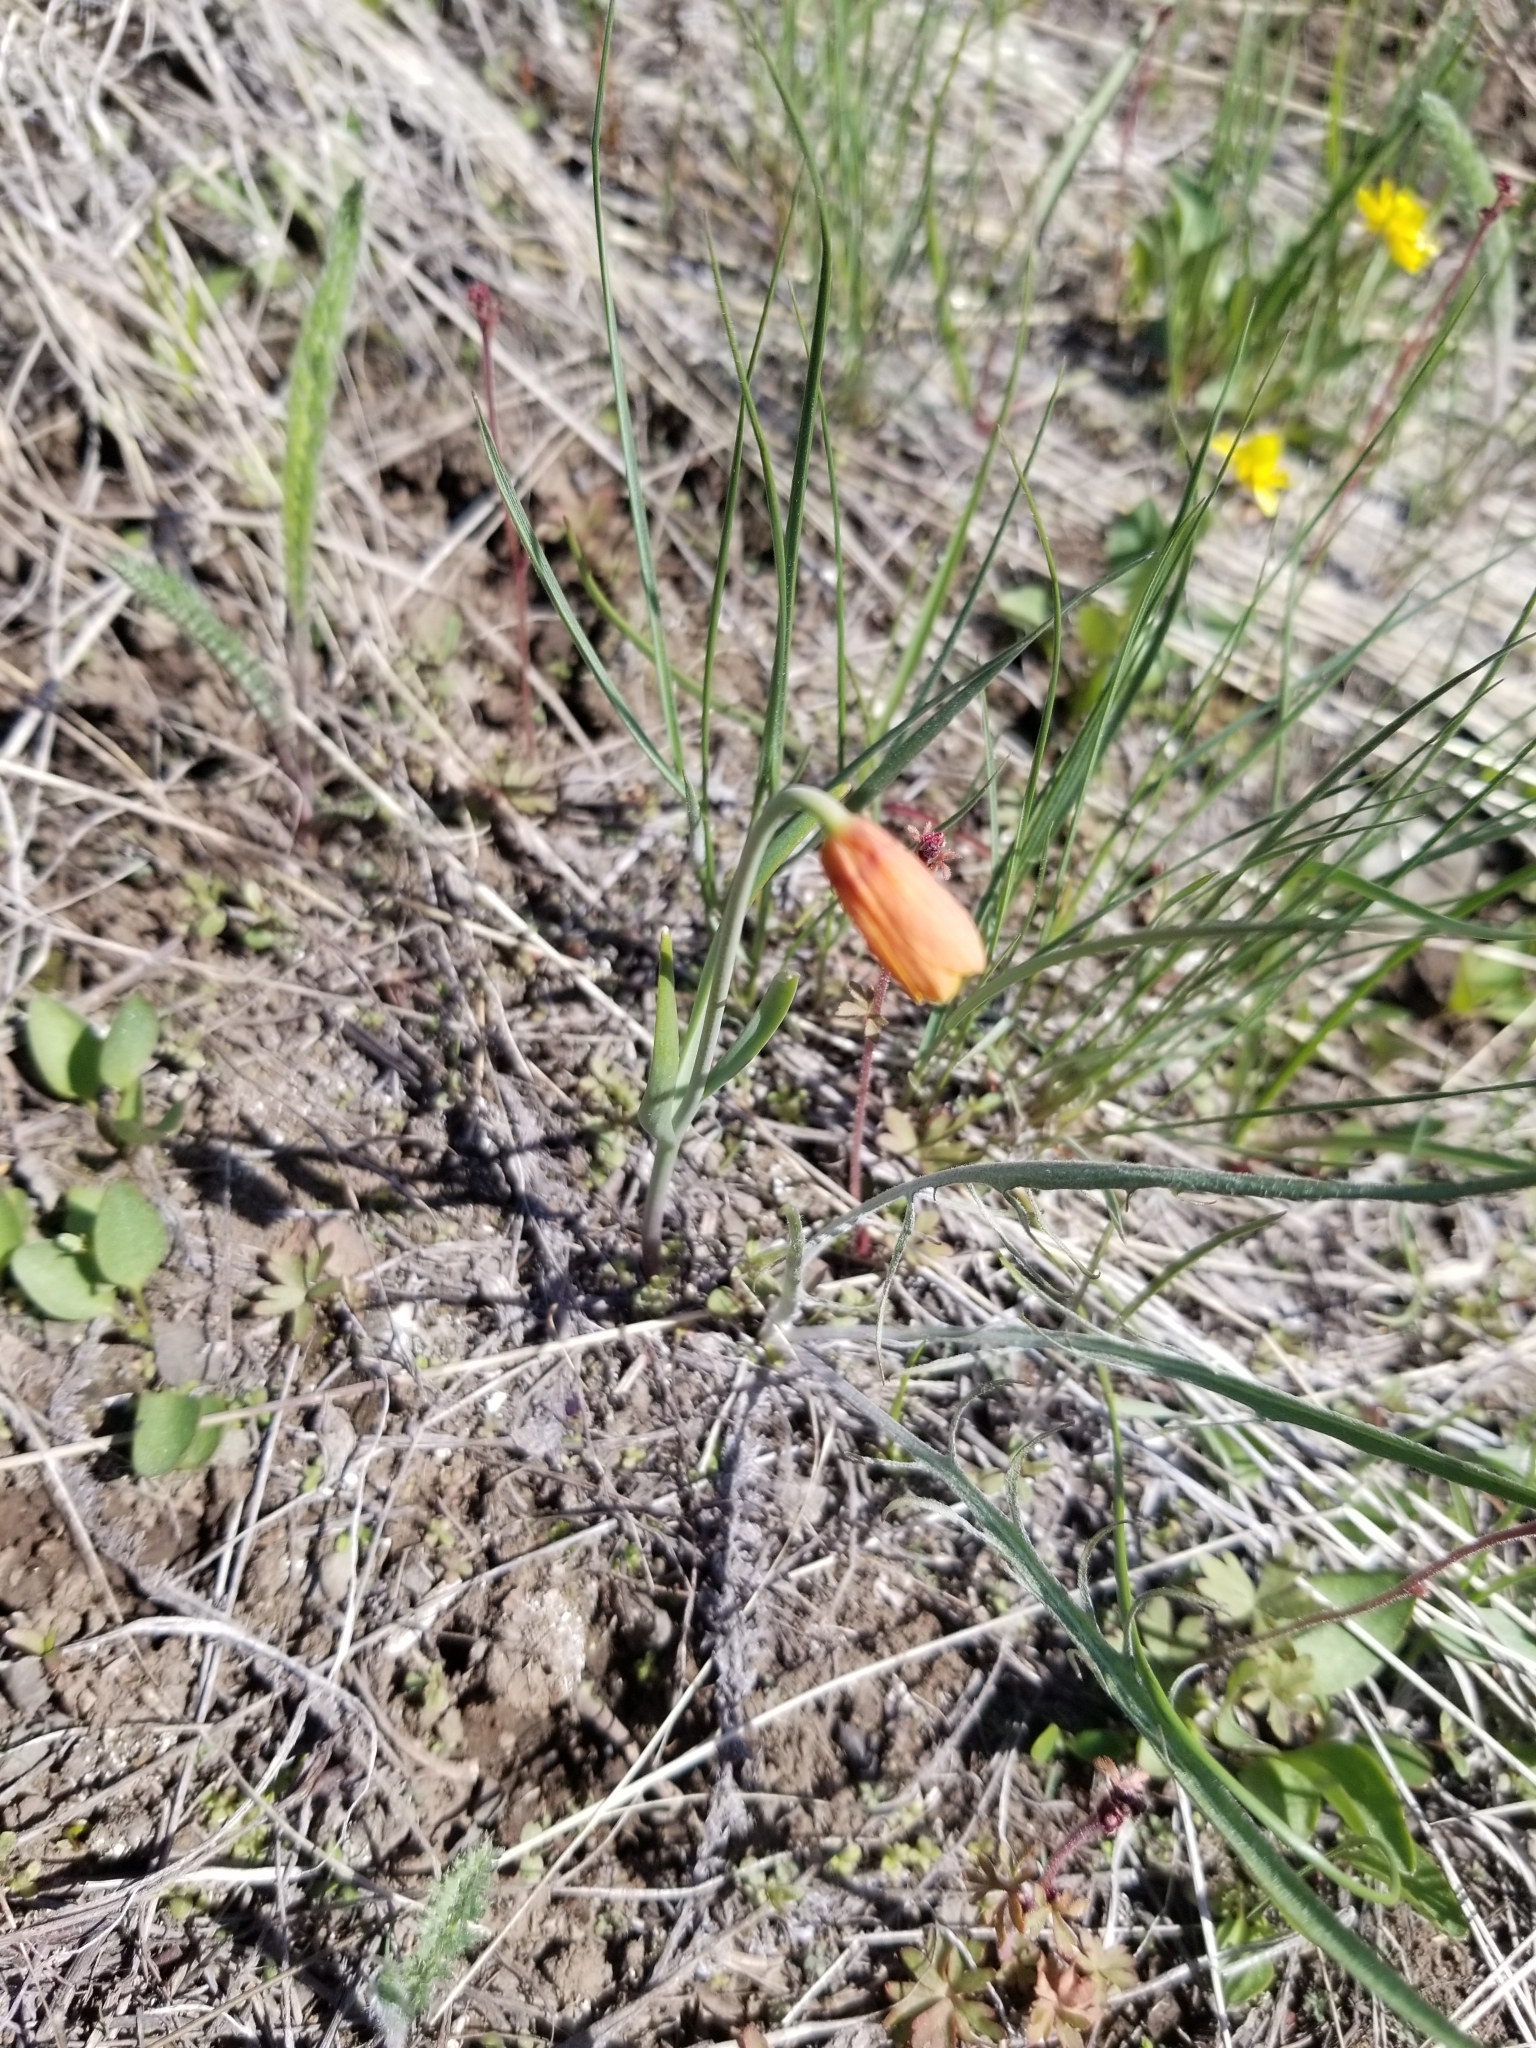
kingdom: Plantae
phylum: Tracheophyta
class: Liliopsida
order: Liliales
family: Liliaceae
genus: Fritillaria
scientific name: Fritillaria pudica
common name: Yellow fritillary
